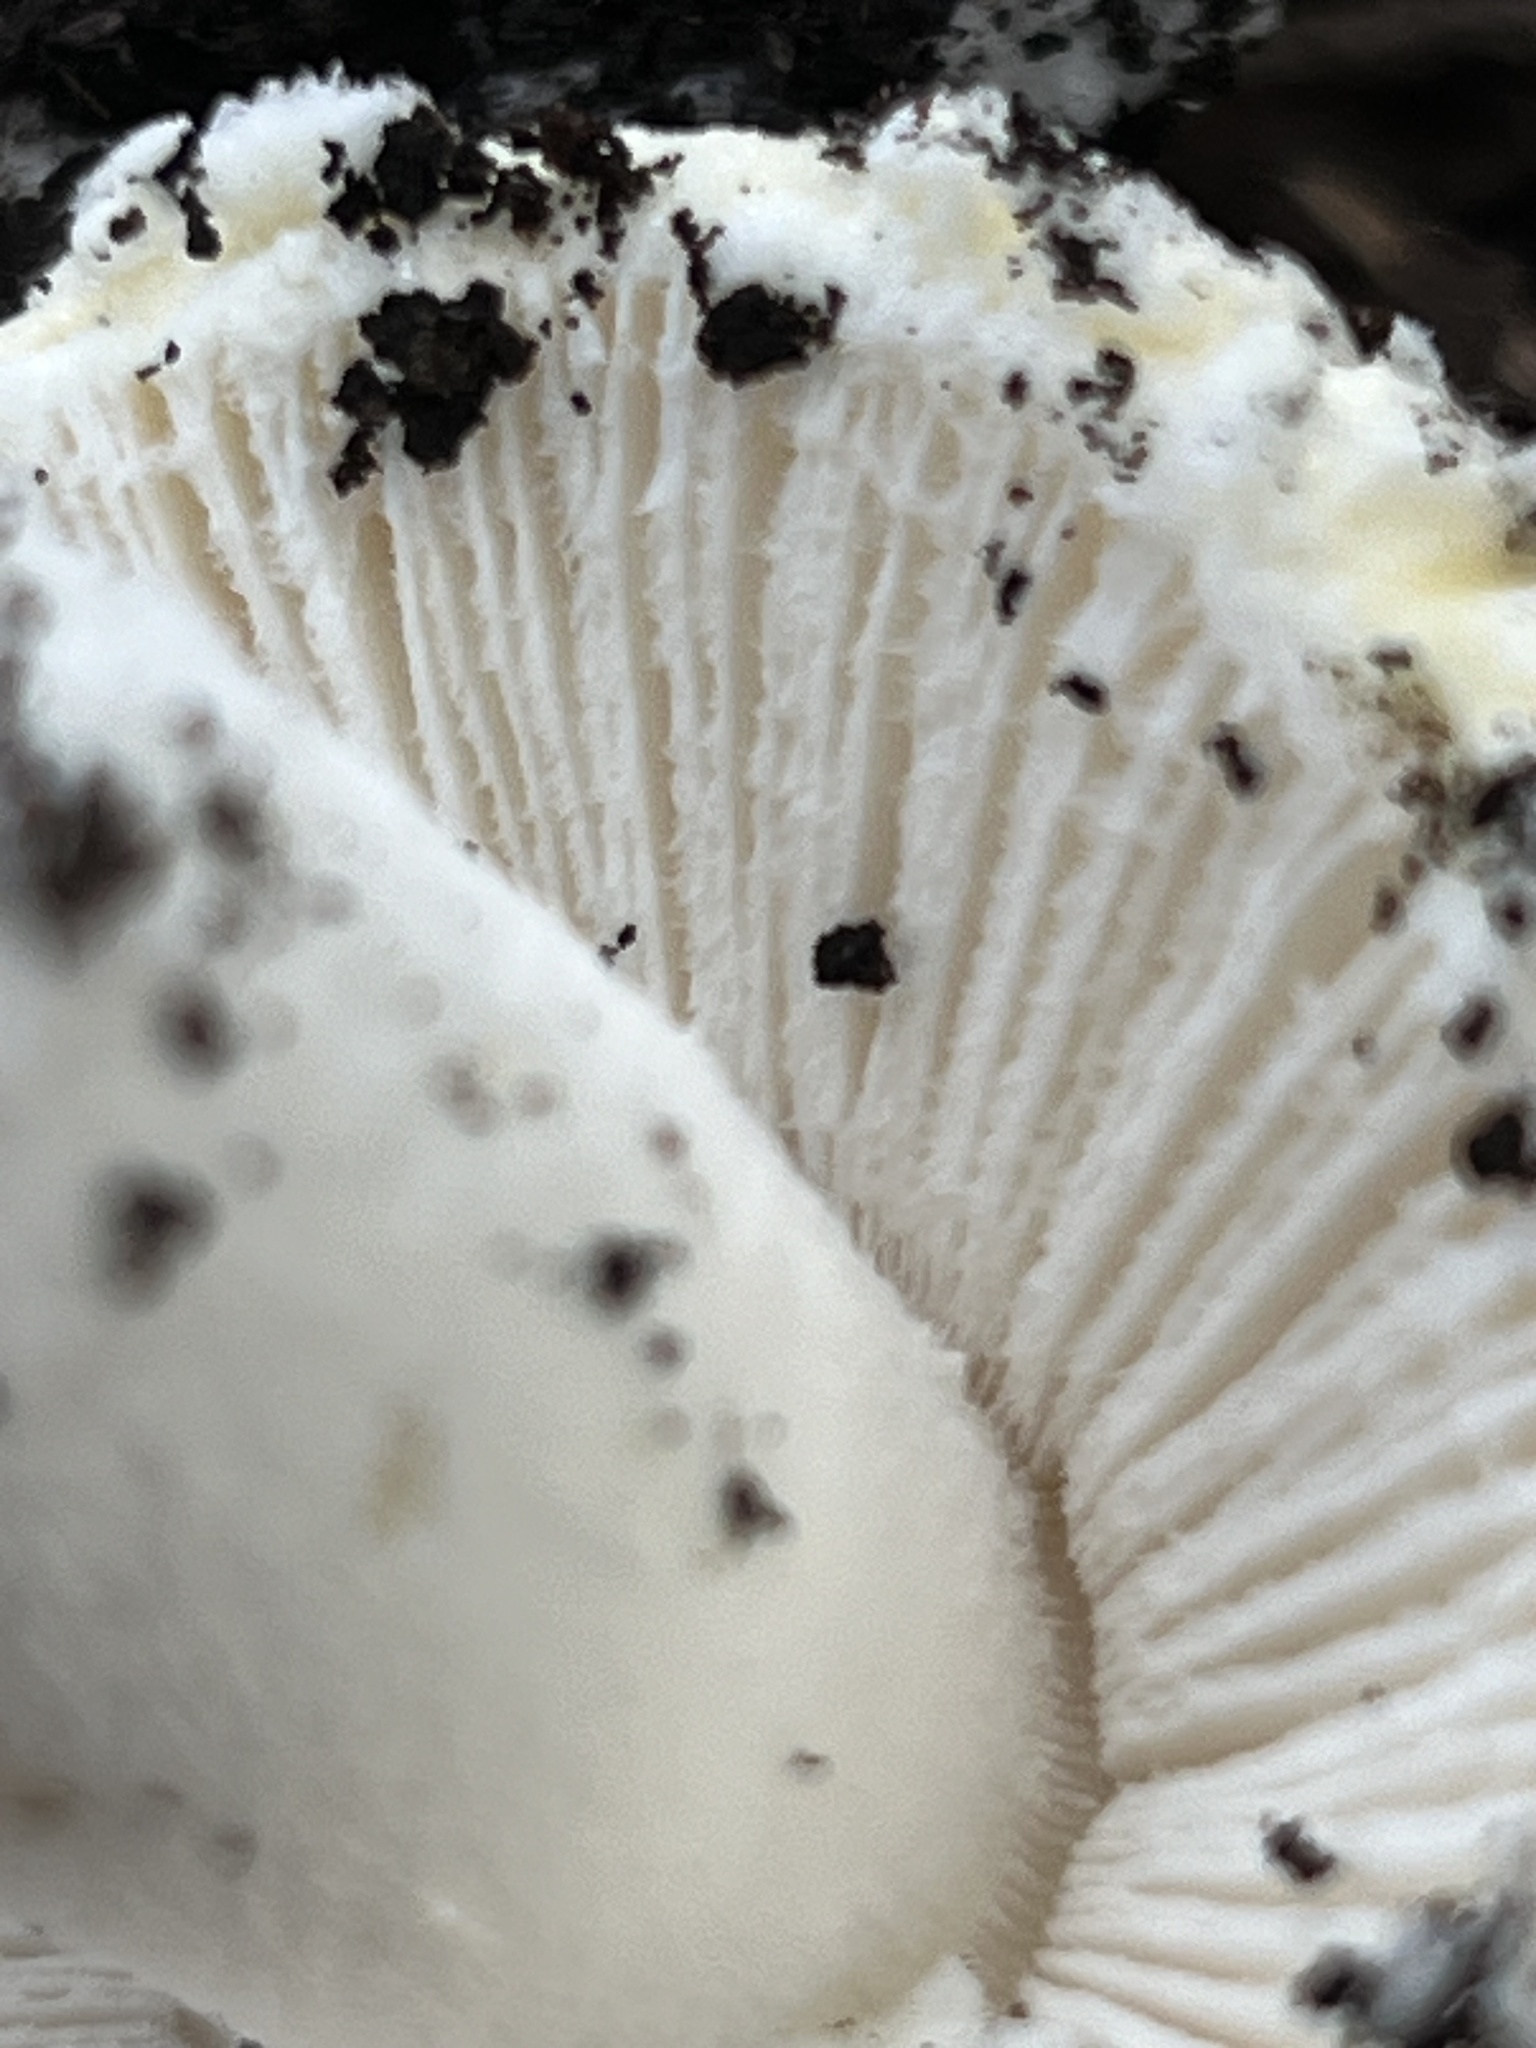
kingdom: Fungi
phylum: Basidiomycota
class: Agaricomycetes
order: Agaricales
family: Amanitaceae
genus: Amanita
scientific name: Amanita aprica
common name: Sunshine amanita
